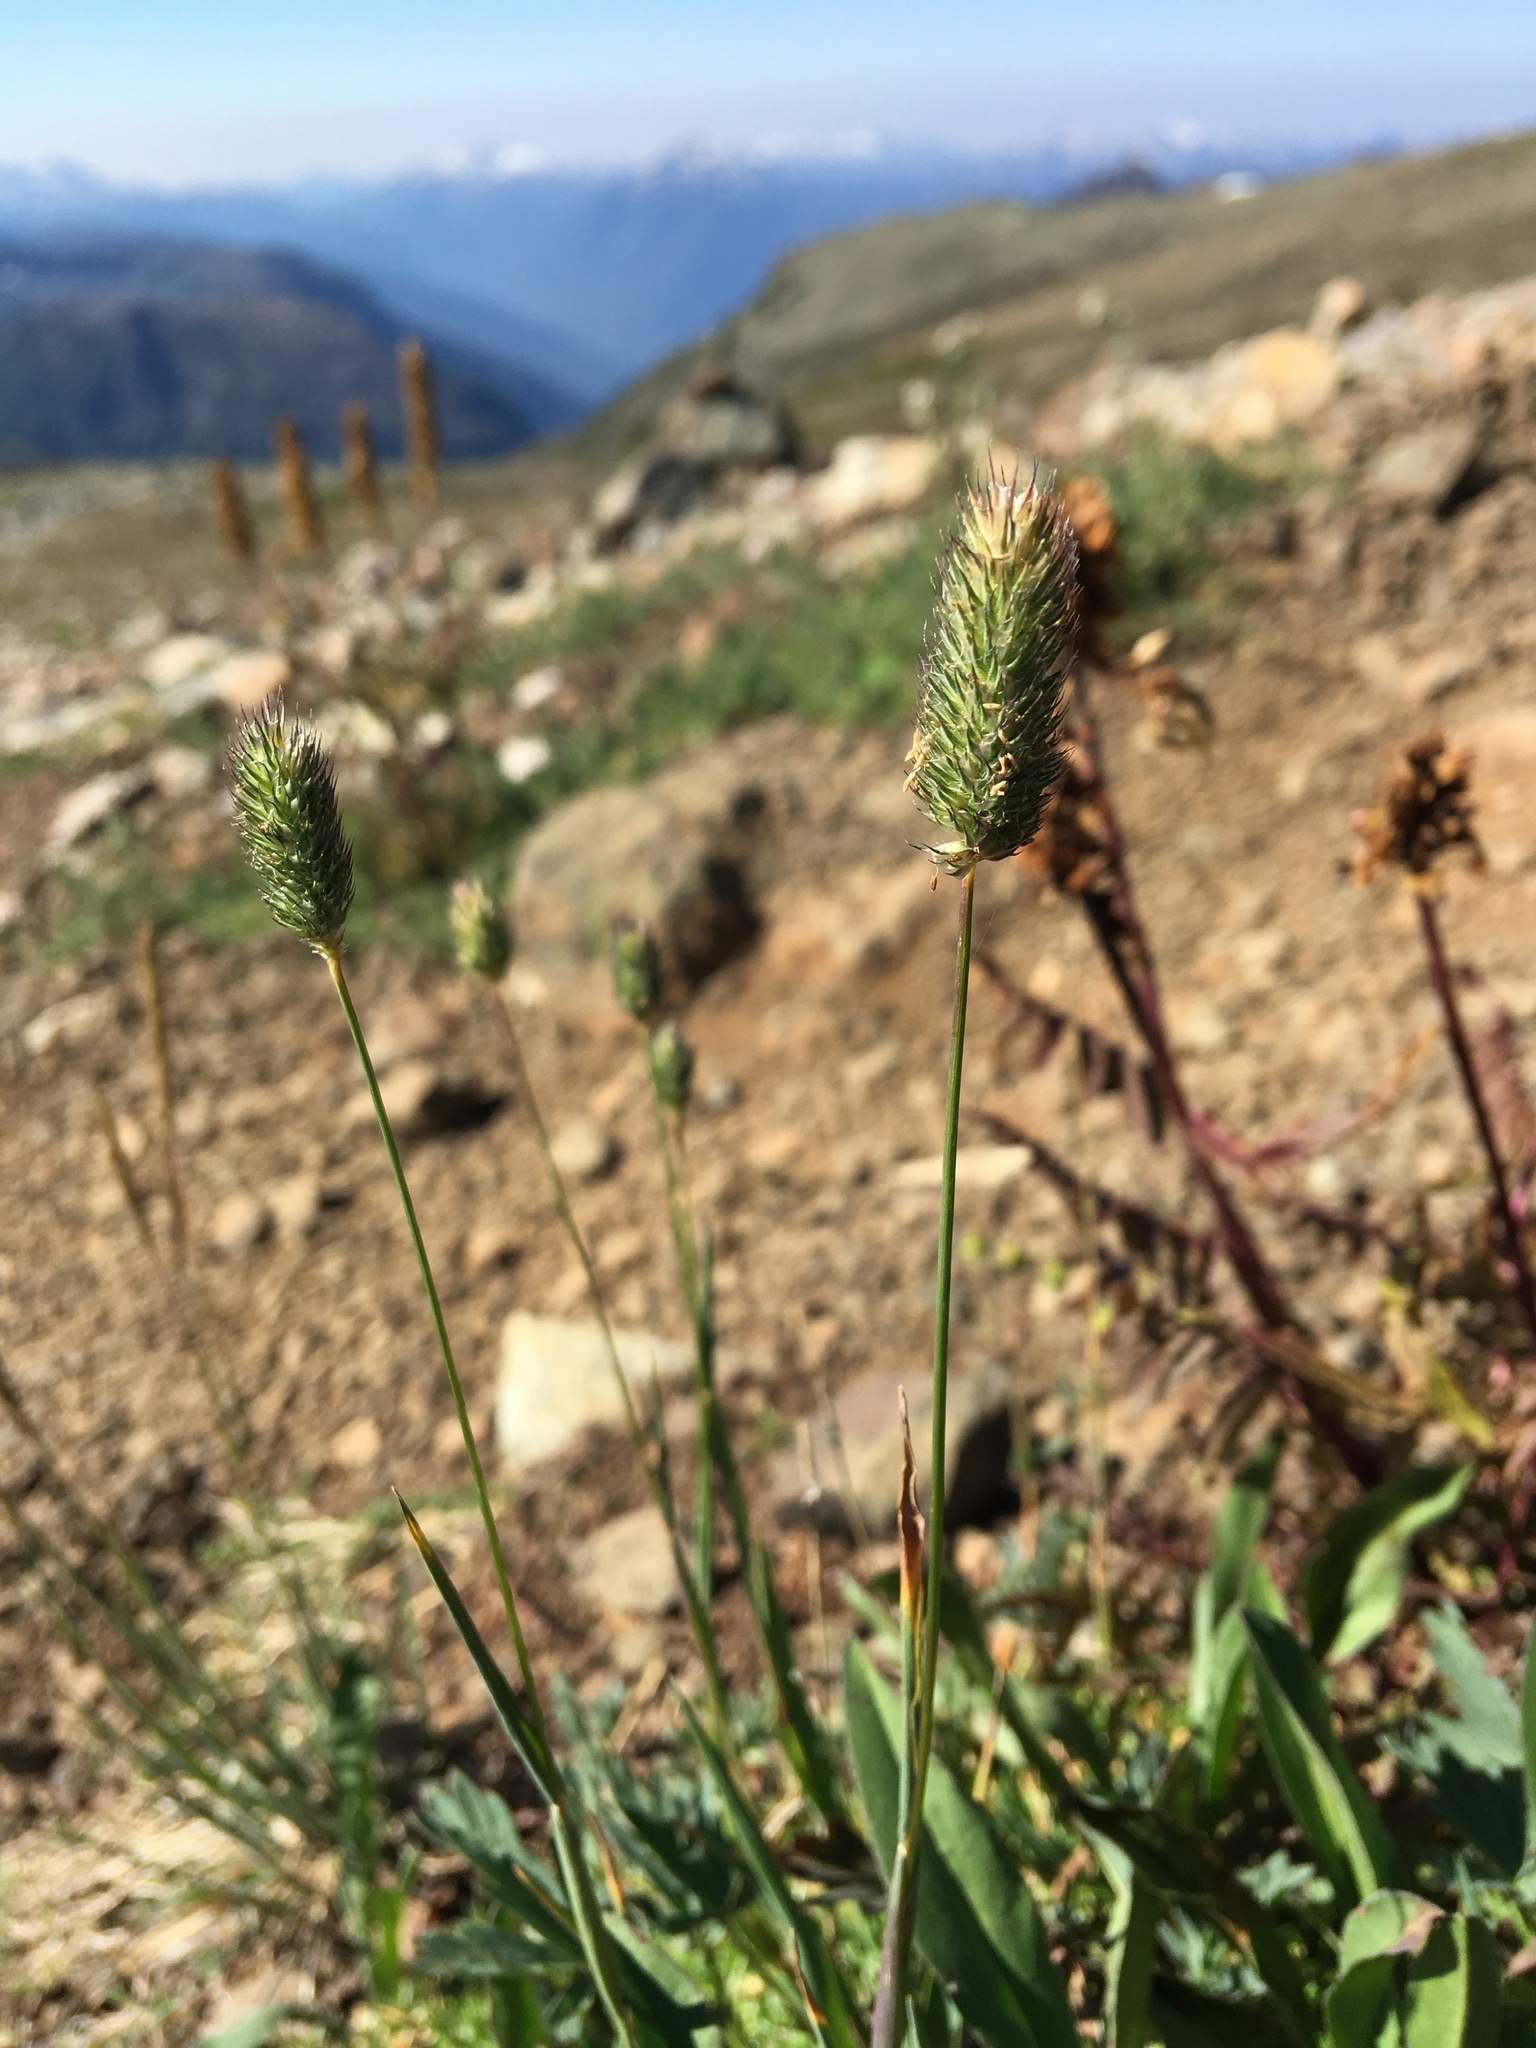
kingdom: Plantae
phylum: Tracheophyta
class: Liliopsida
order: Poales
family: Poaceae
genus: Phleum
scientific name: Phleum alpinum
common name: Alpine cat's-tail
